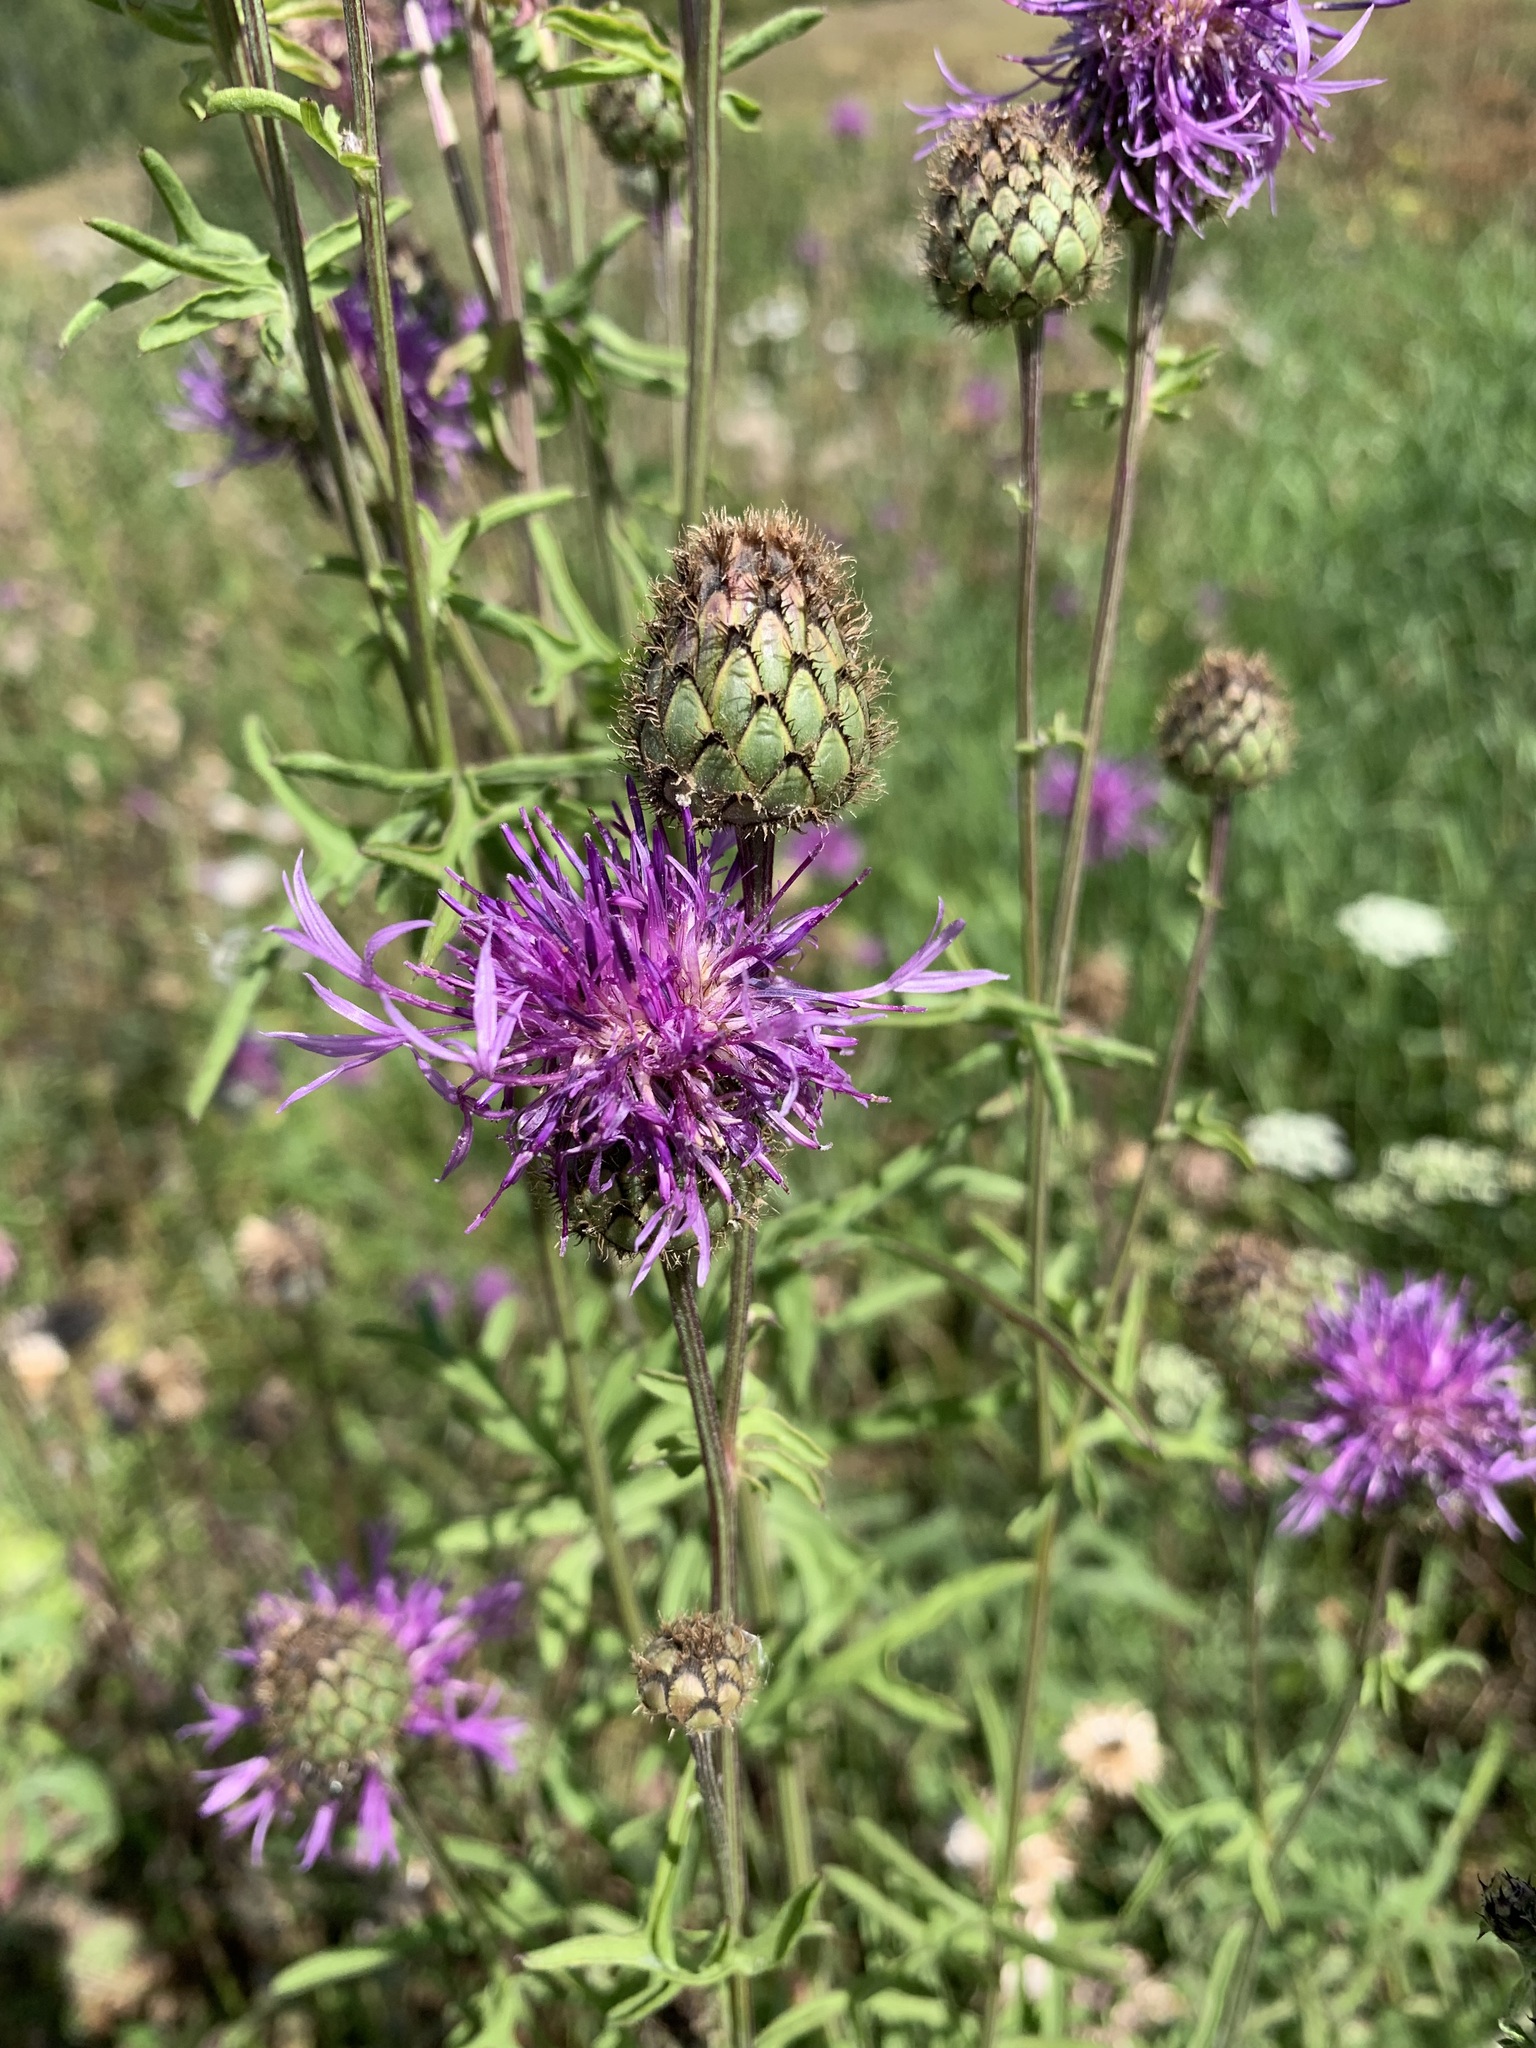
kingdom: Plantae
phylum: Tracheophyta
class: Magnoliopsida
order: Asterales
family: Asteraceae
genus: Centaurea
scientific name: Centaurea scabiosa
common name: Greater knapweed
